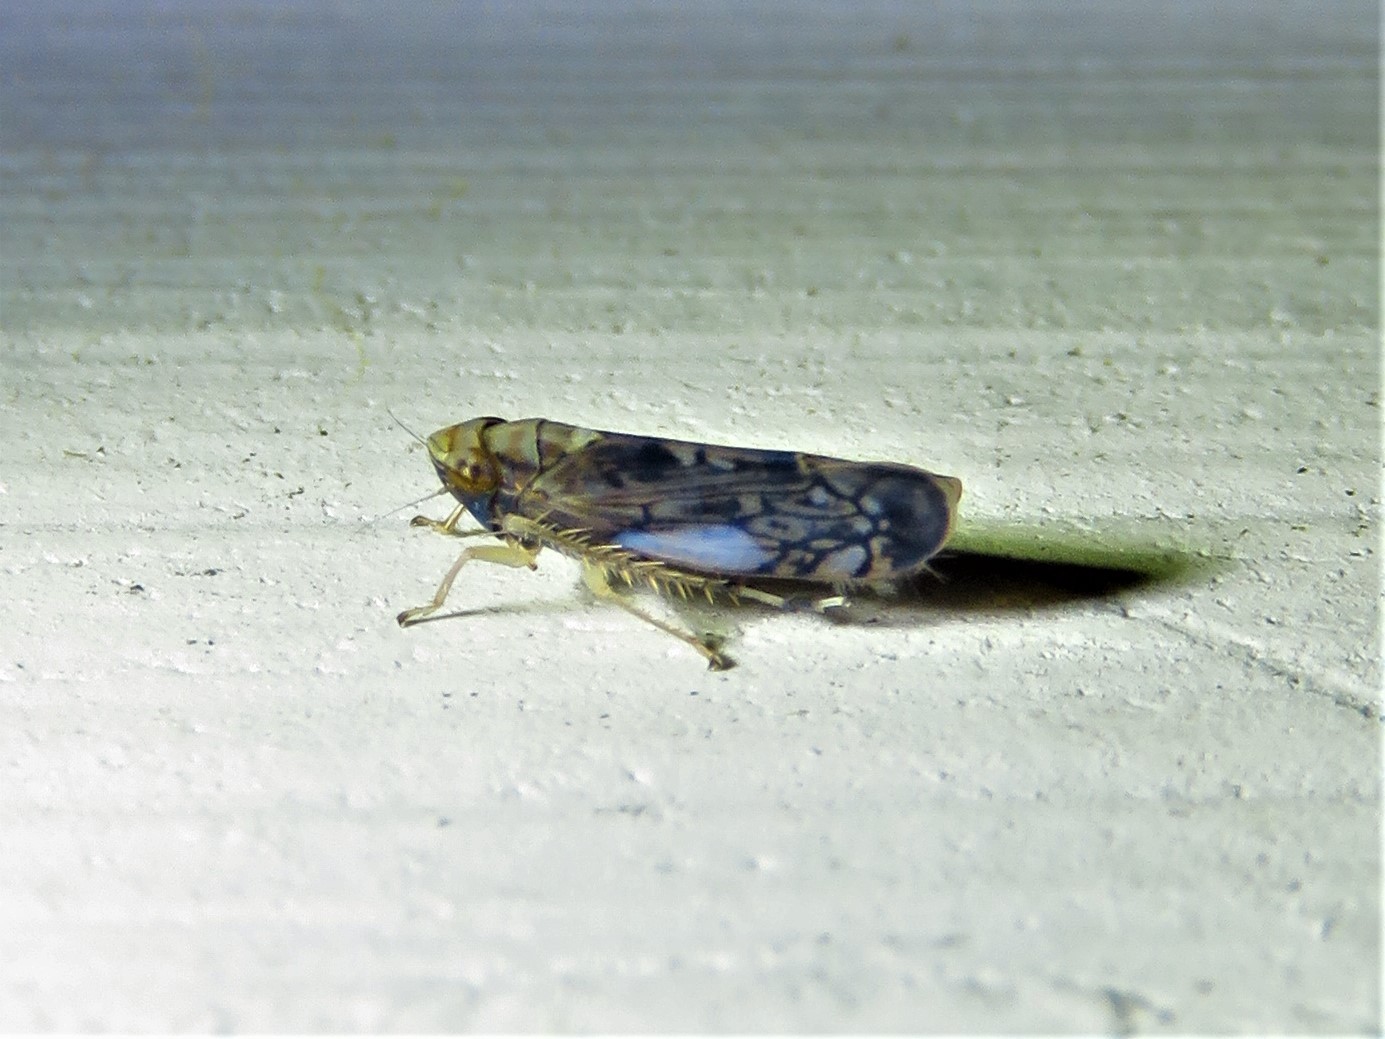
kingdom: Animalia
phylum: Arthropoda
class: Insecta
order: Hemiptera
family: Cicadellidae
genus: Scaphoideus
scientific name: Scaphoideus pullus
